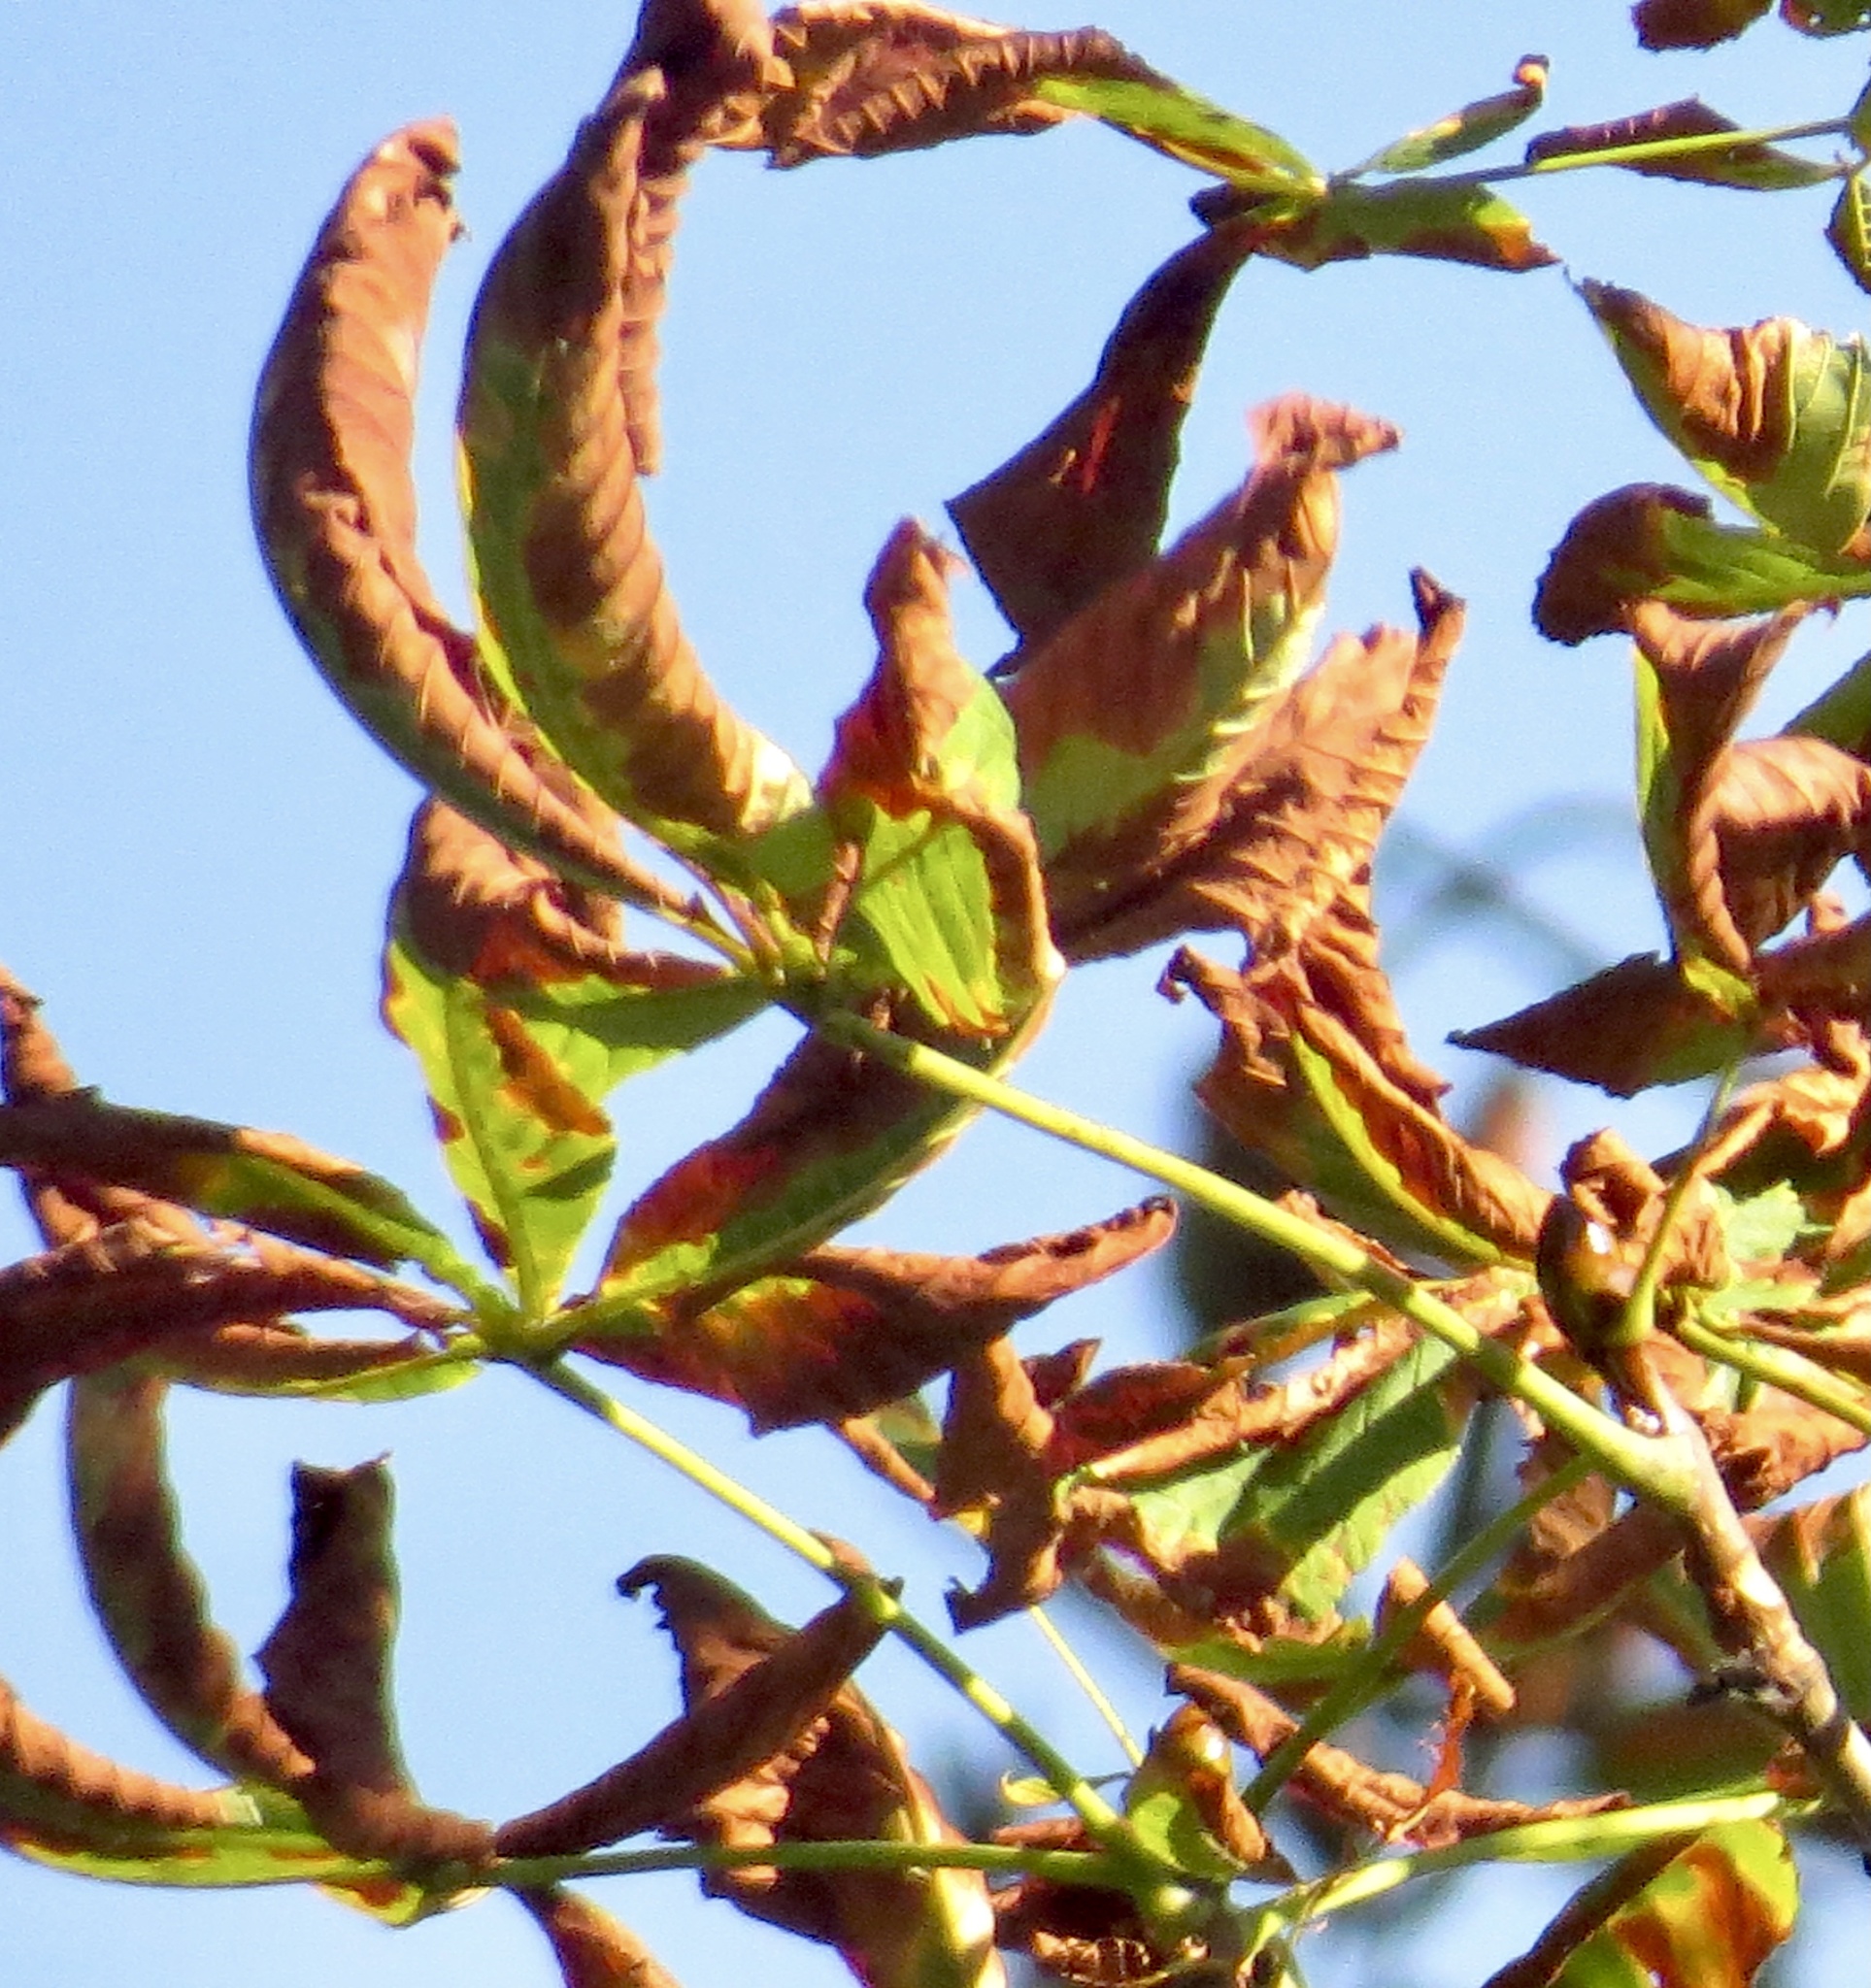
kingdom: Plantae
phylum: Tracheophyta
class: Magnoliopsida
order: Sapindales
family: Sapindaceae
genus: Aesculus
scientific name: Aesculus hippocastanum
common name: Horse-chestnut
